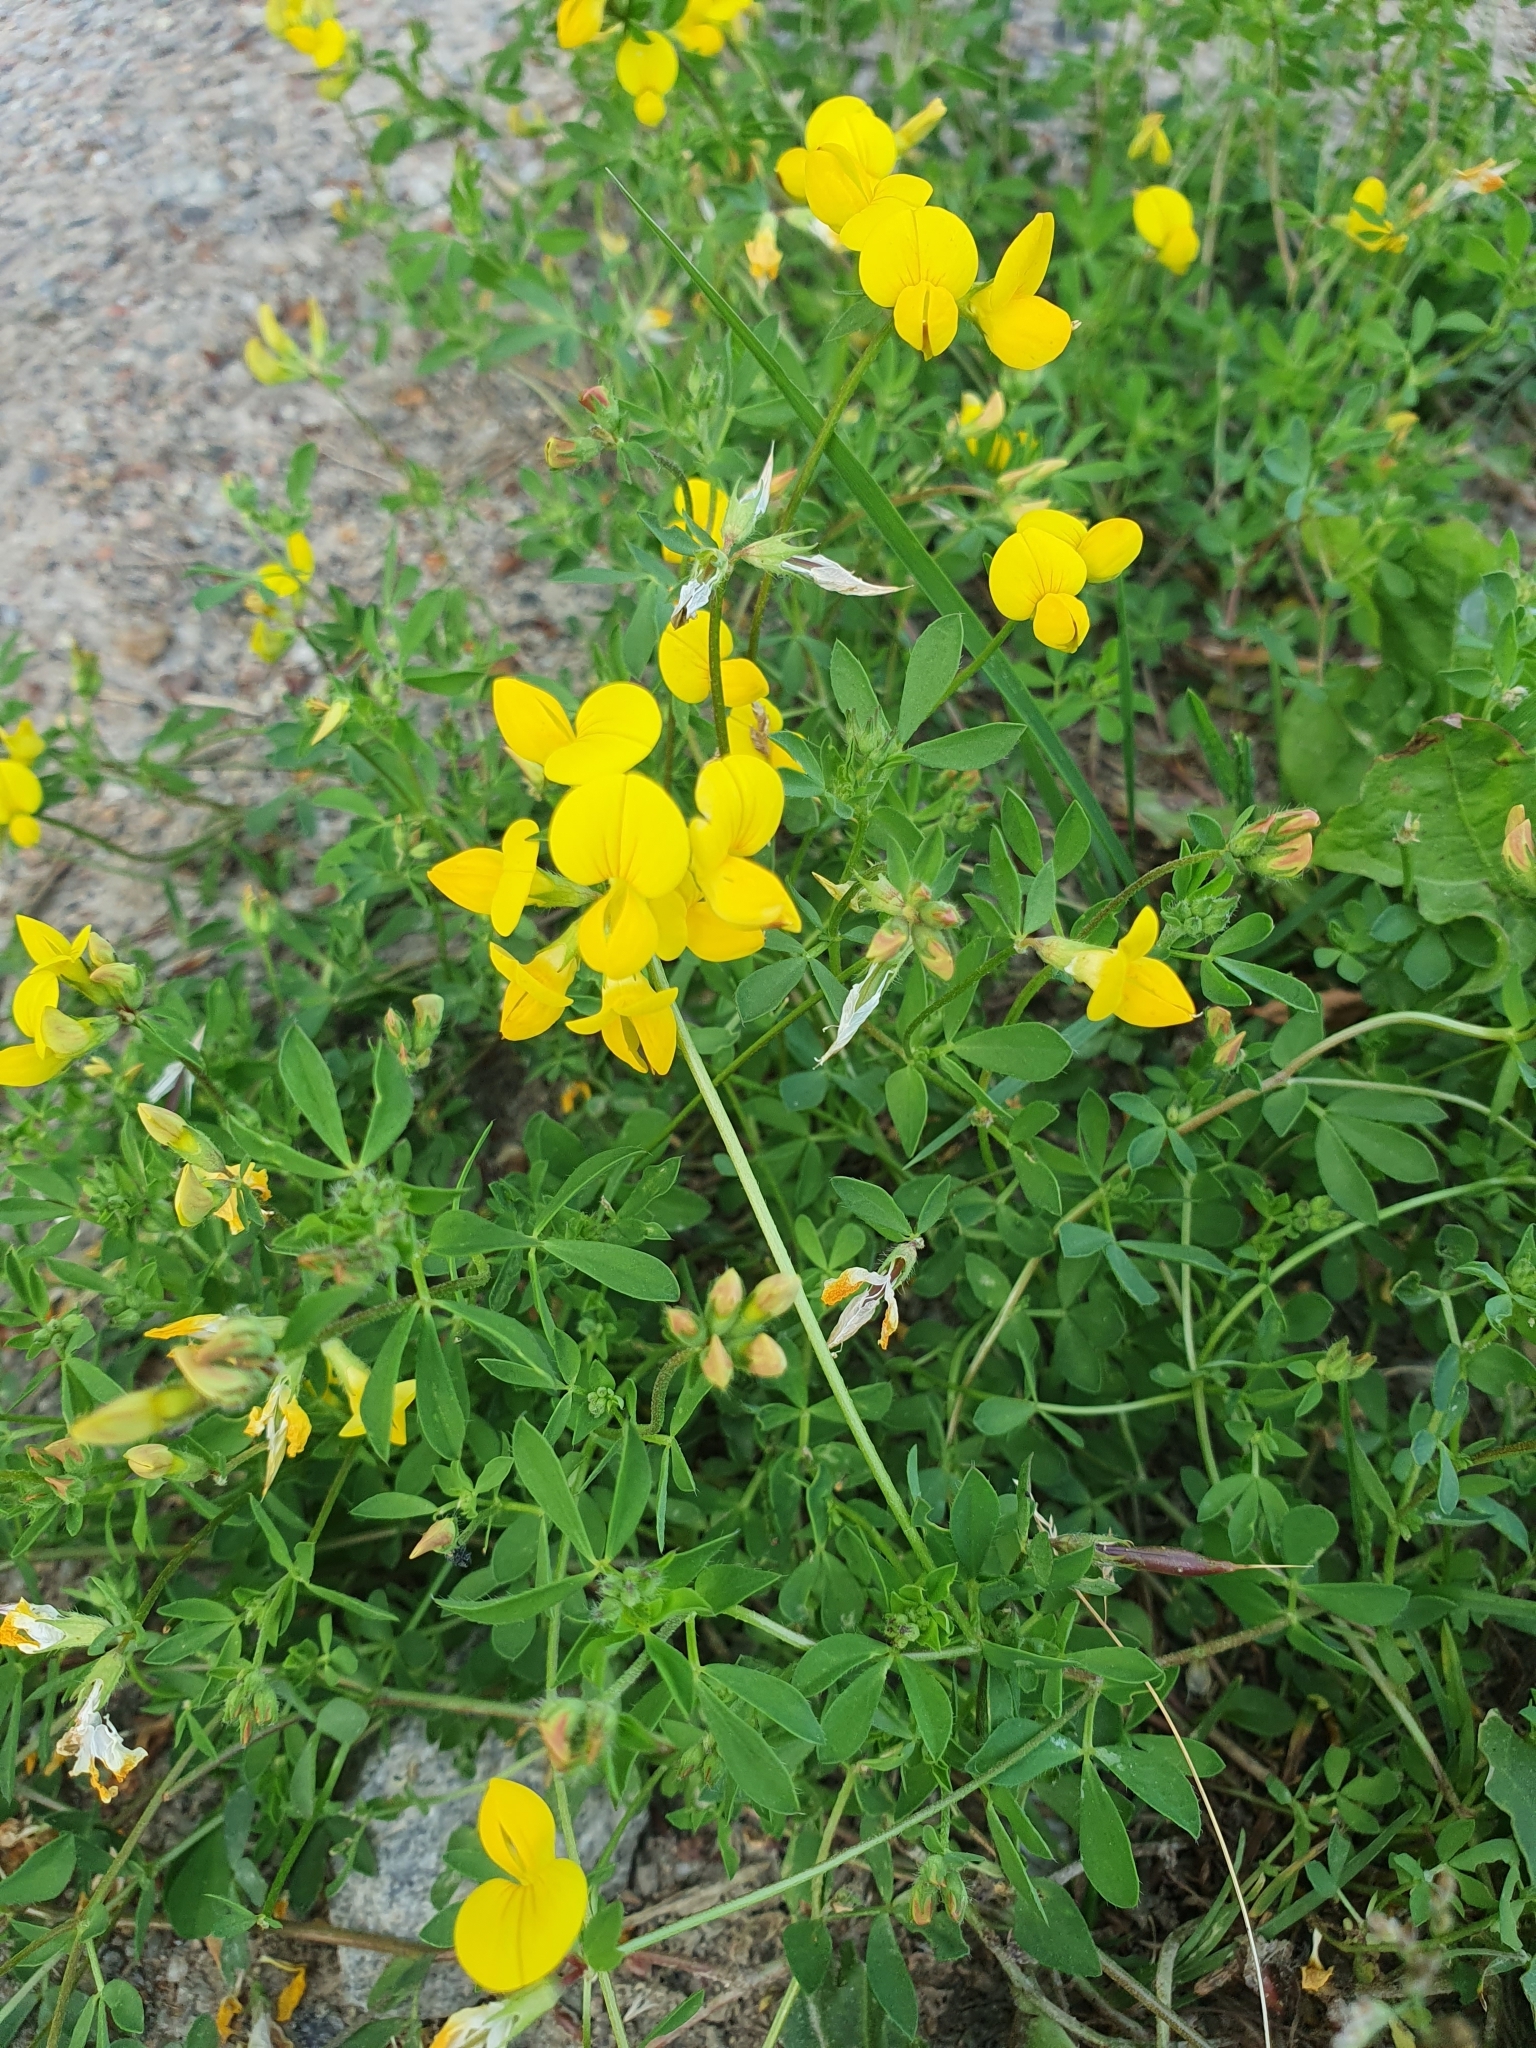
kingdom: Plantae
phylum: Tracheophyta
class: Magnoliopsida
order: Fabales
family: Fabaceae
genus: Lotus
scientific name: Lotus corniculatus
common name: Common bird's-foot-trefoil
